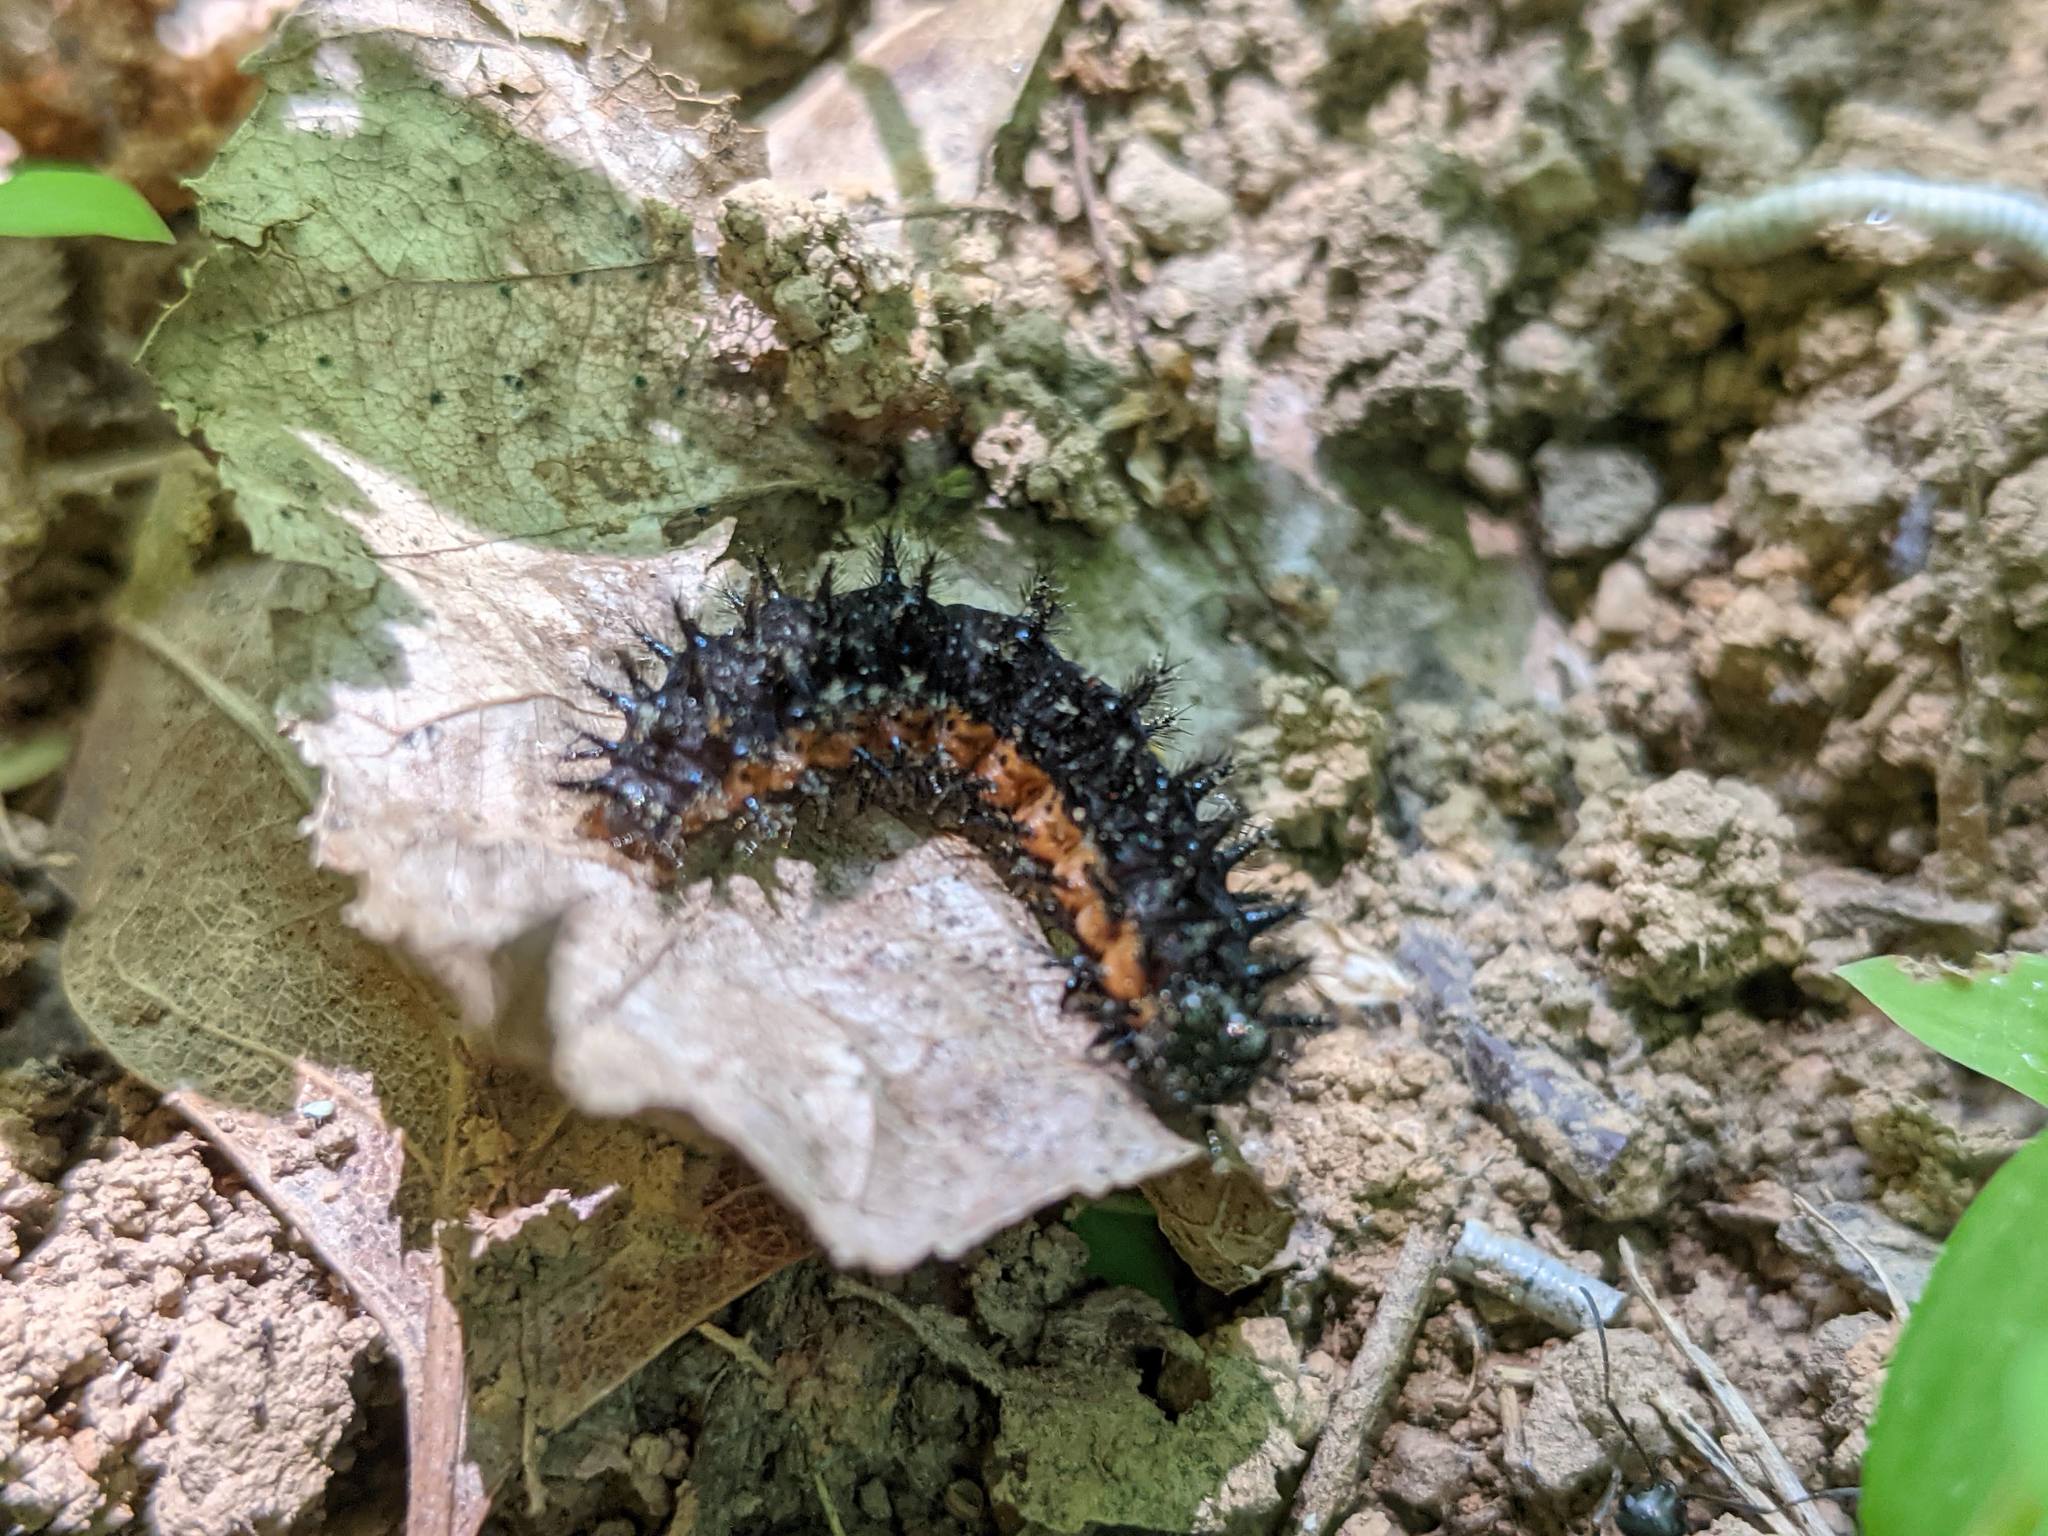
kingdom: Animalia
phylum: Arthropoda
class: Insecta
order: Lepidoptera
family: Nymphalidae
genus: Chlosyne
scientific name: Chlosyne nycteis
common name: Silvery checkerspot
